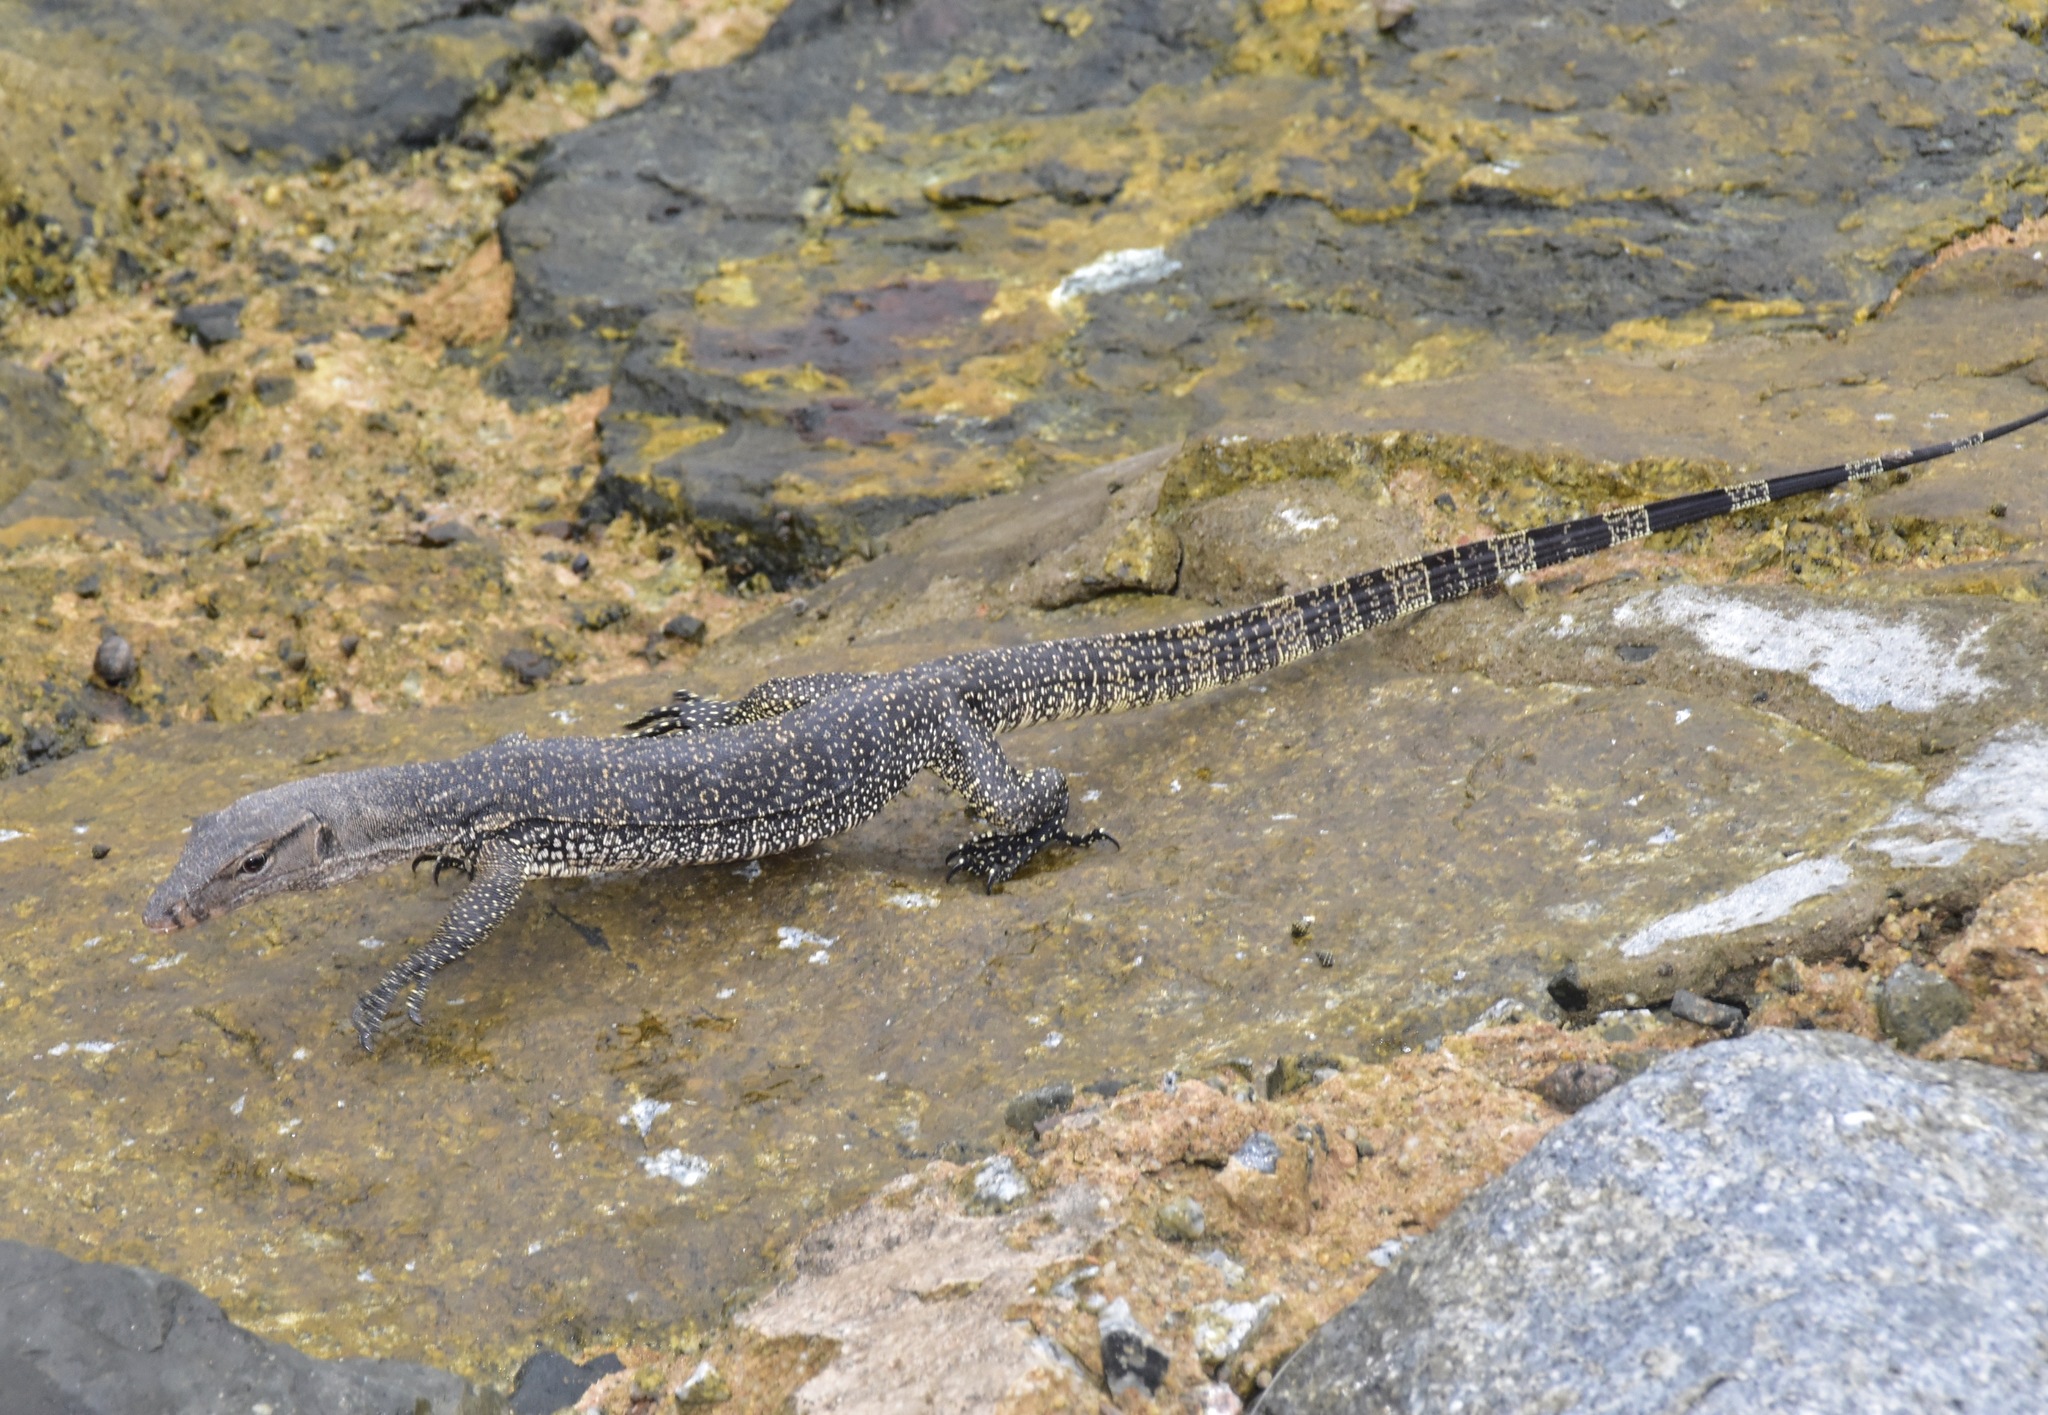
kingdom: Animalia
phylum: Chordata
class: Squamata
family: Varanidae
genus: Varanus
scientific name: Varanus salvator
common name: Common water monitor
